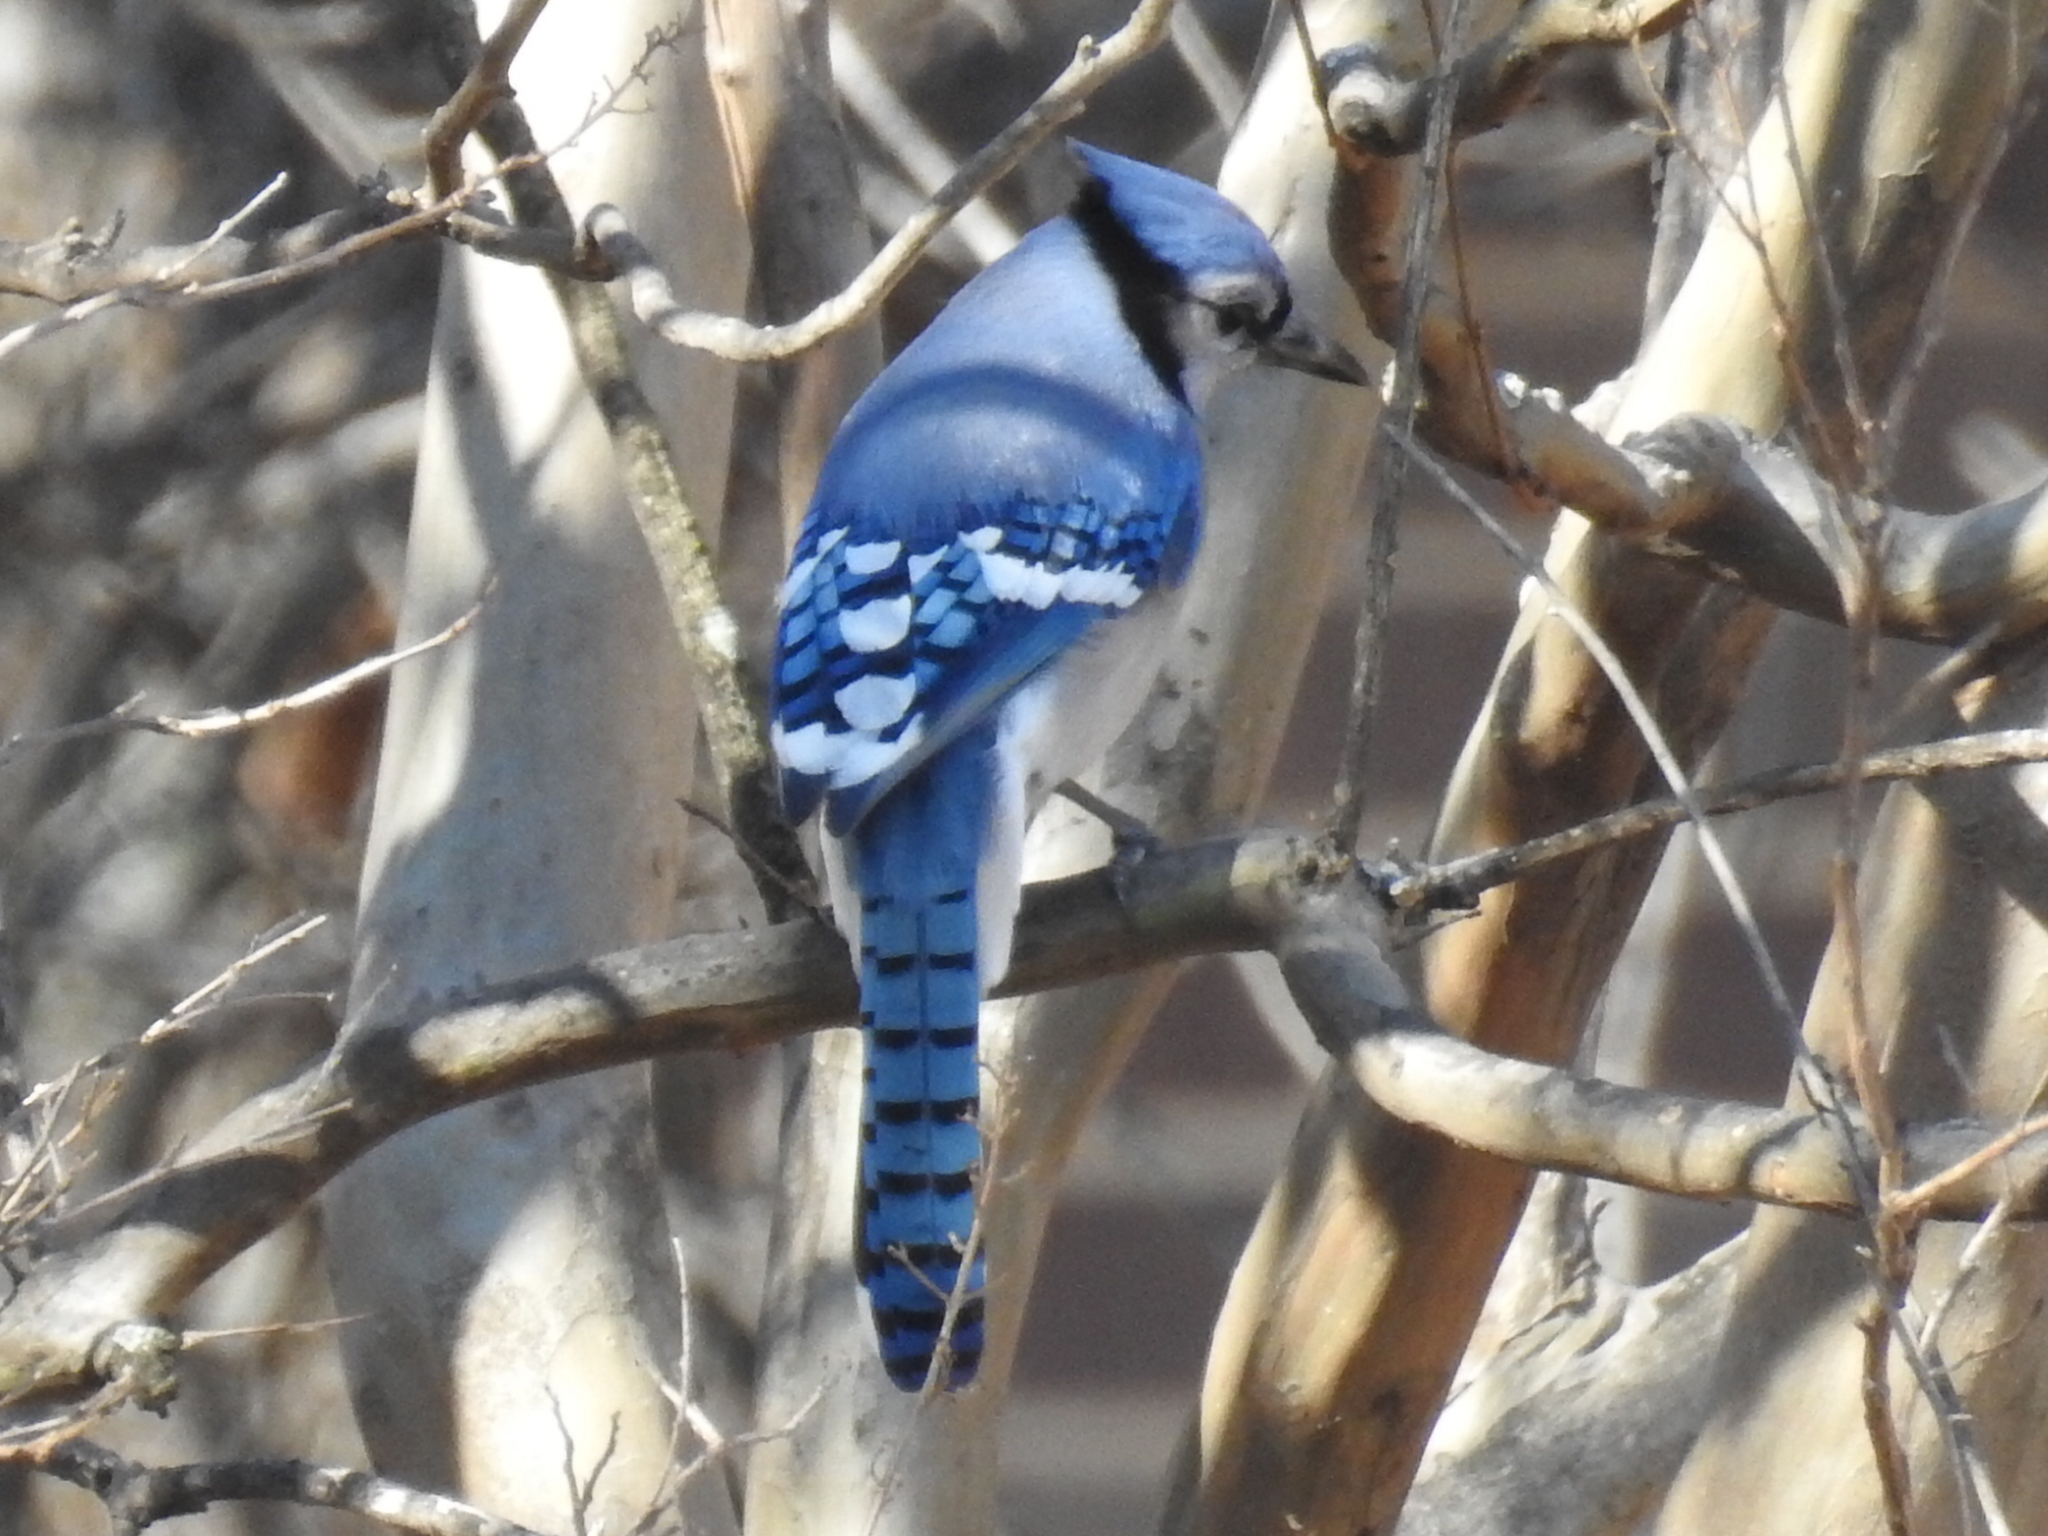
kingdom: Animalia
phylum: Chordata
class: Aves
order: Passeriformes
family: Corvidae
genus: Cyanocitta
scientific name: Cyanocitta cristata
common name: Blue jay
